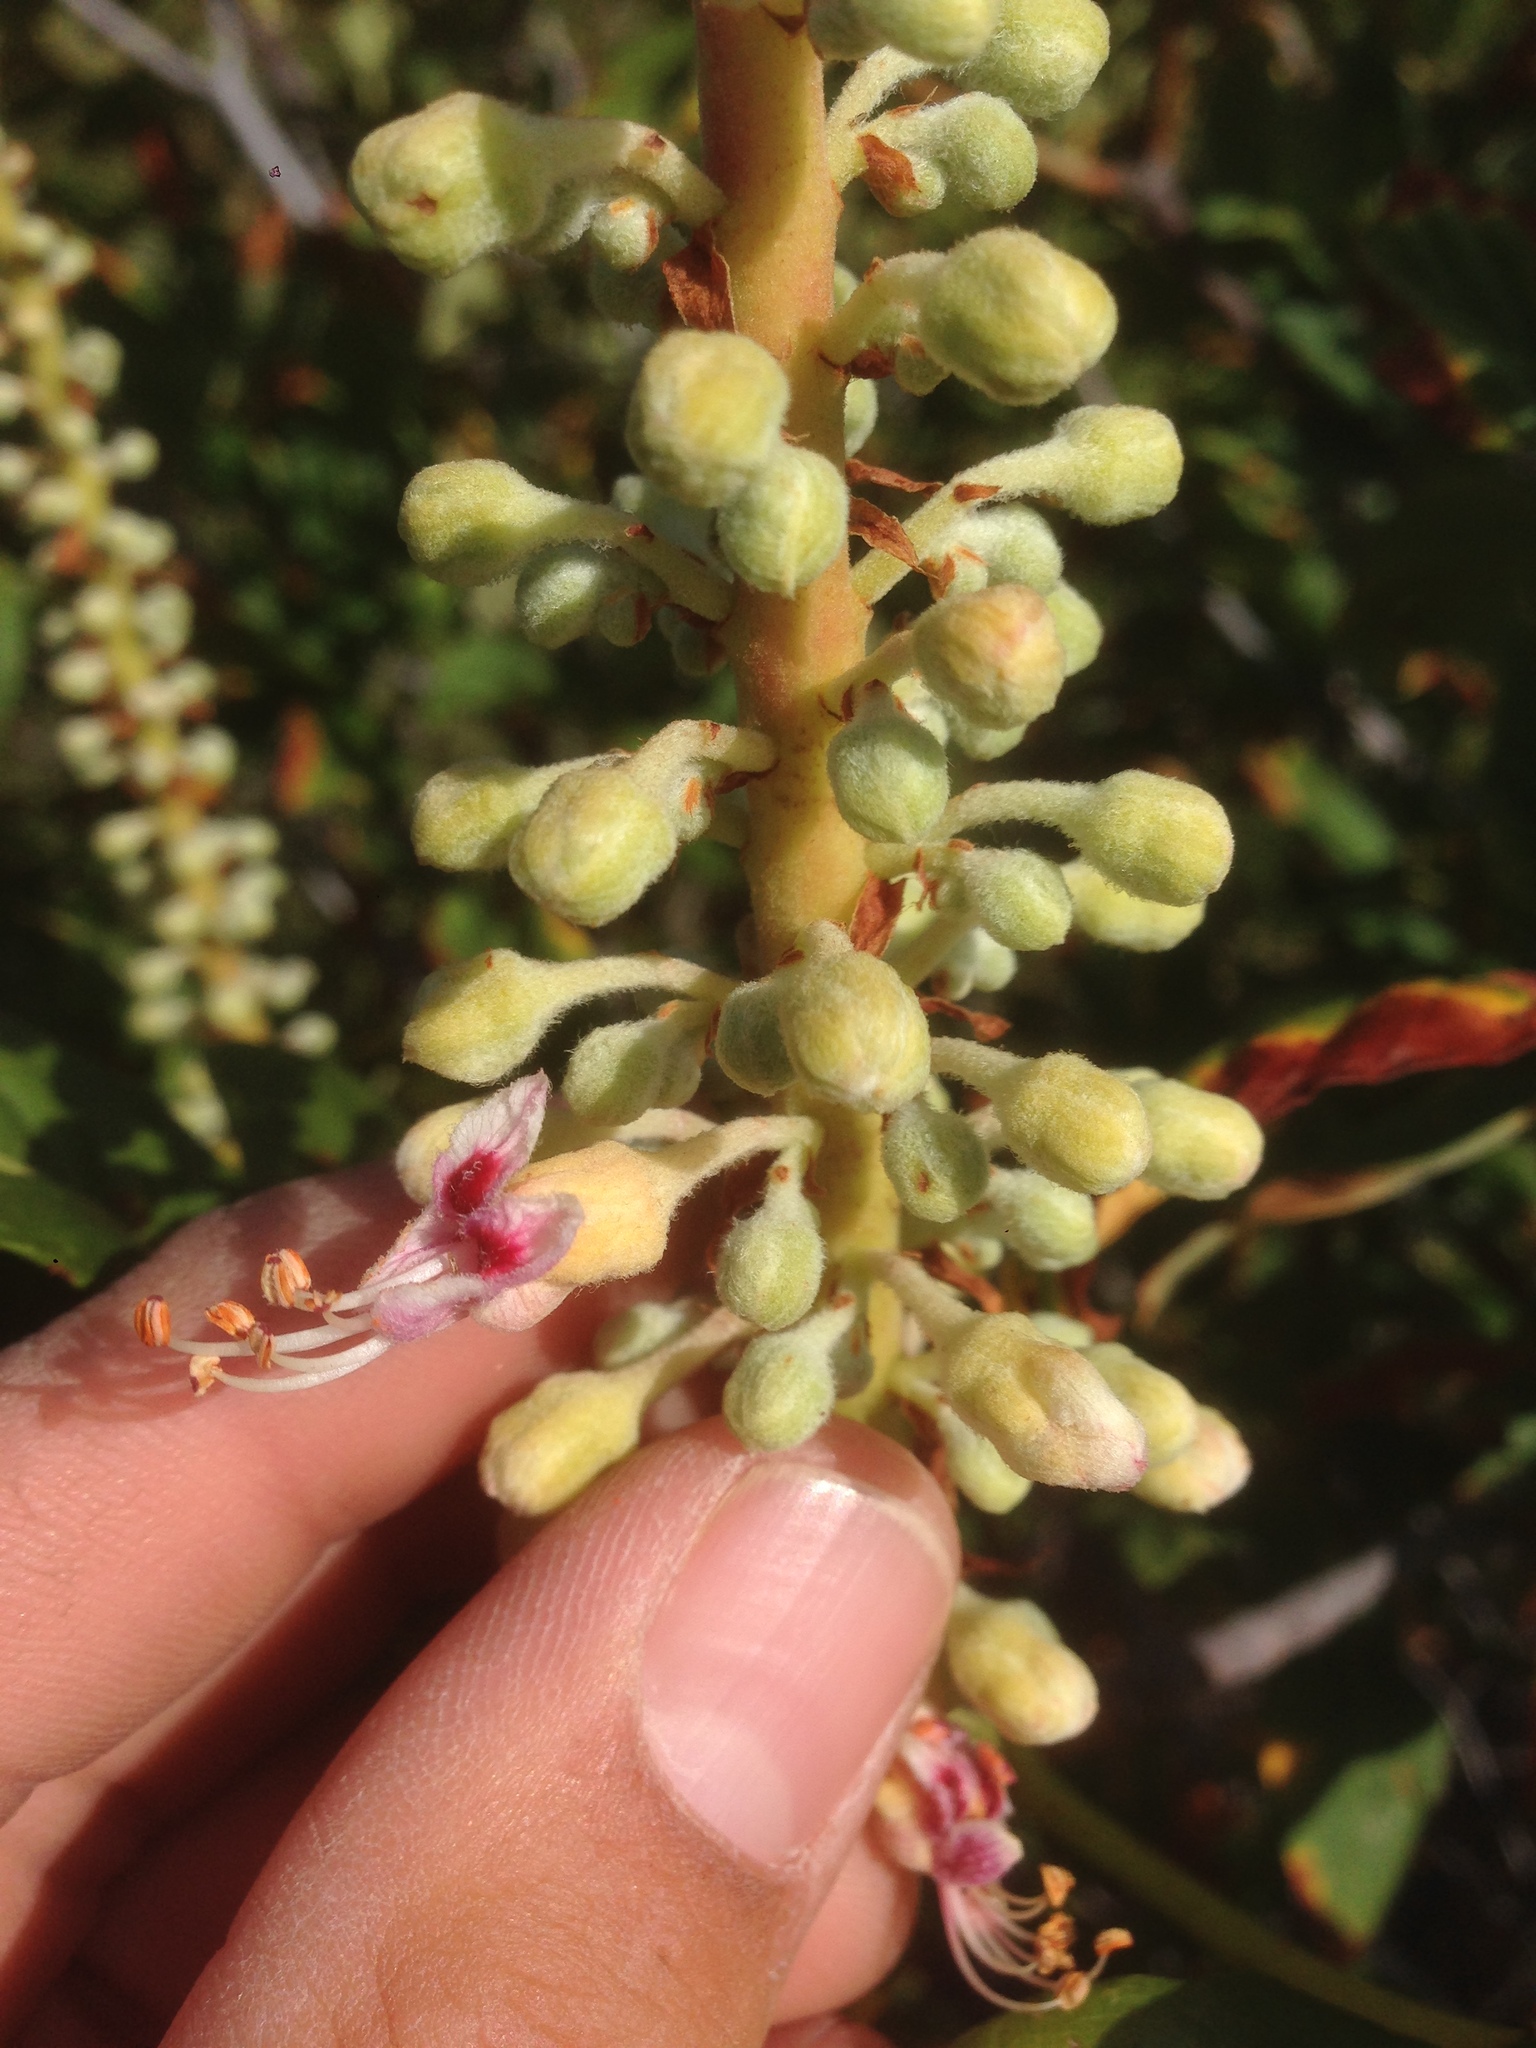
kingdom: Plantae
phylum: Tracheophyta
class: Magnoliopsida
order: Sapindales
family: Sapindaceae
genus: Aesculus
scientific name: Aesculus parryi
